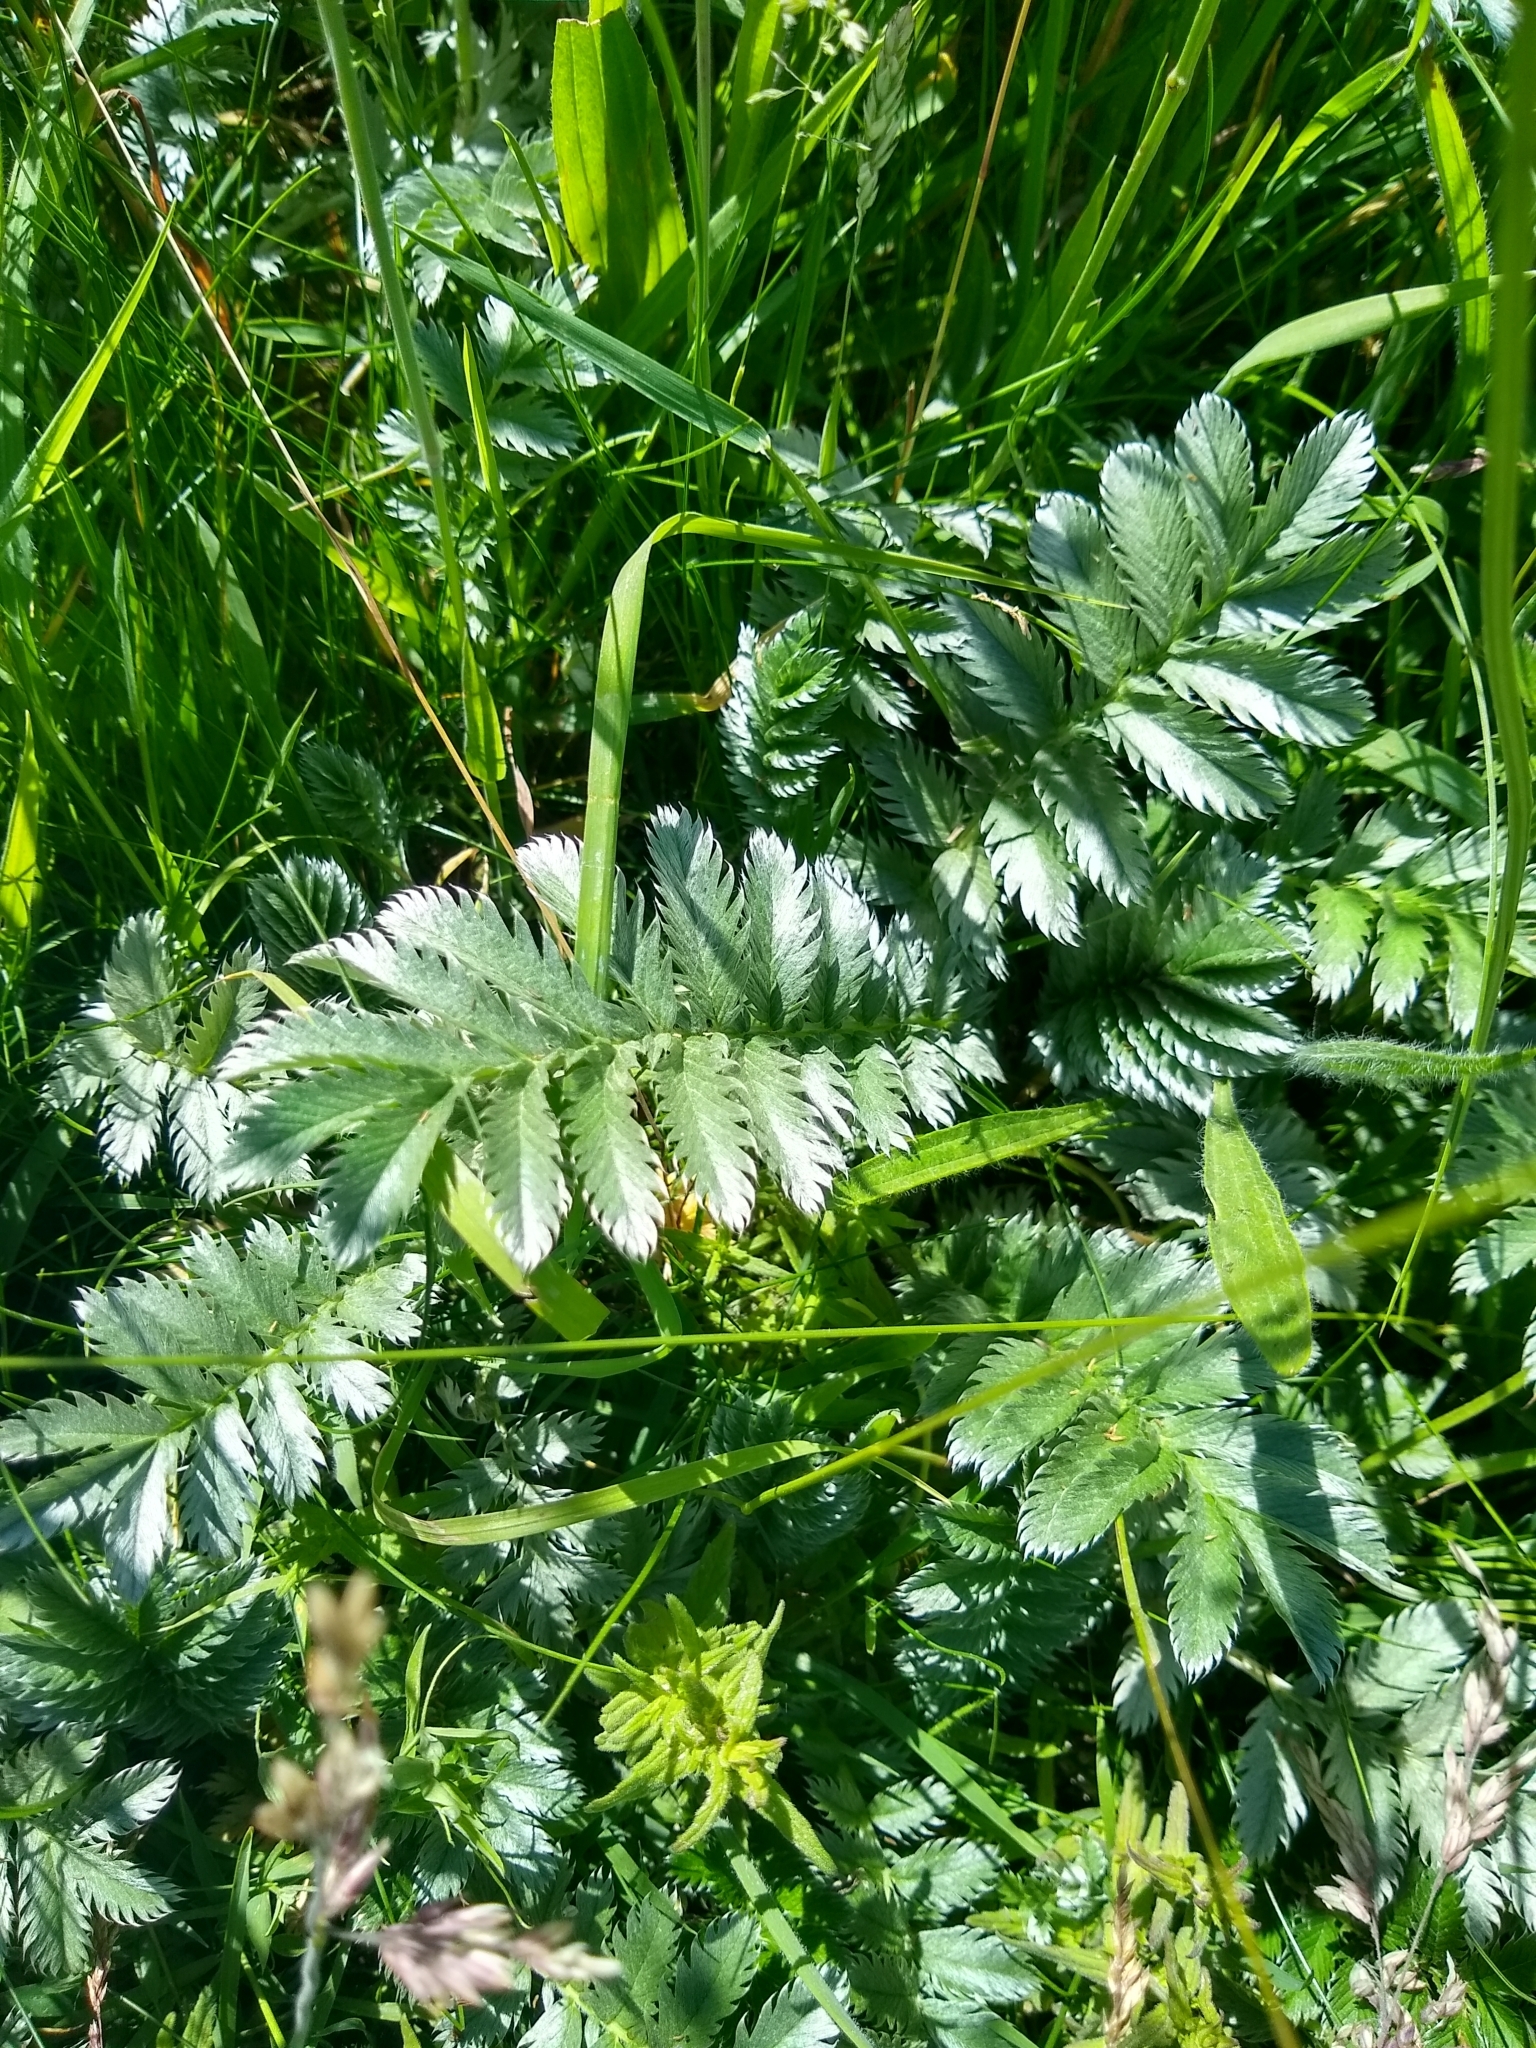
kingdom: Plantae
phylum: Tracheophyta
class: Magnoliopsida
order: Rosales
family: Rosaceae
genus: Argentina
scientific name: Argentina anserina
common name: Common silverweed
